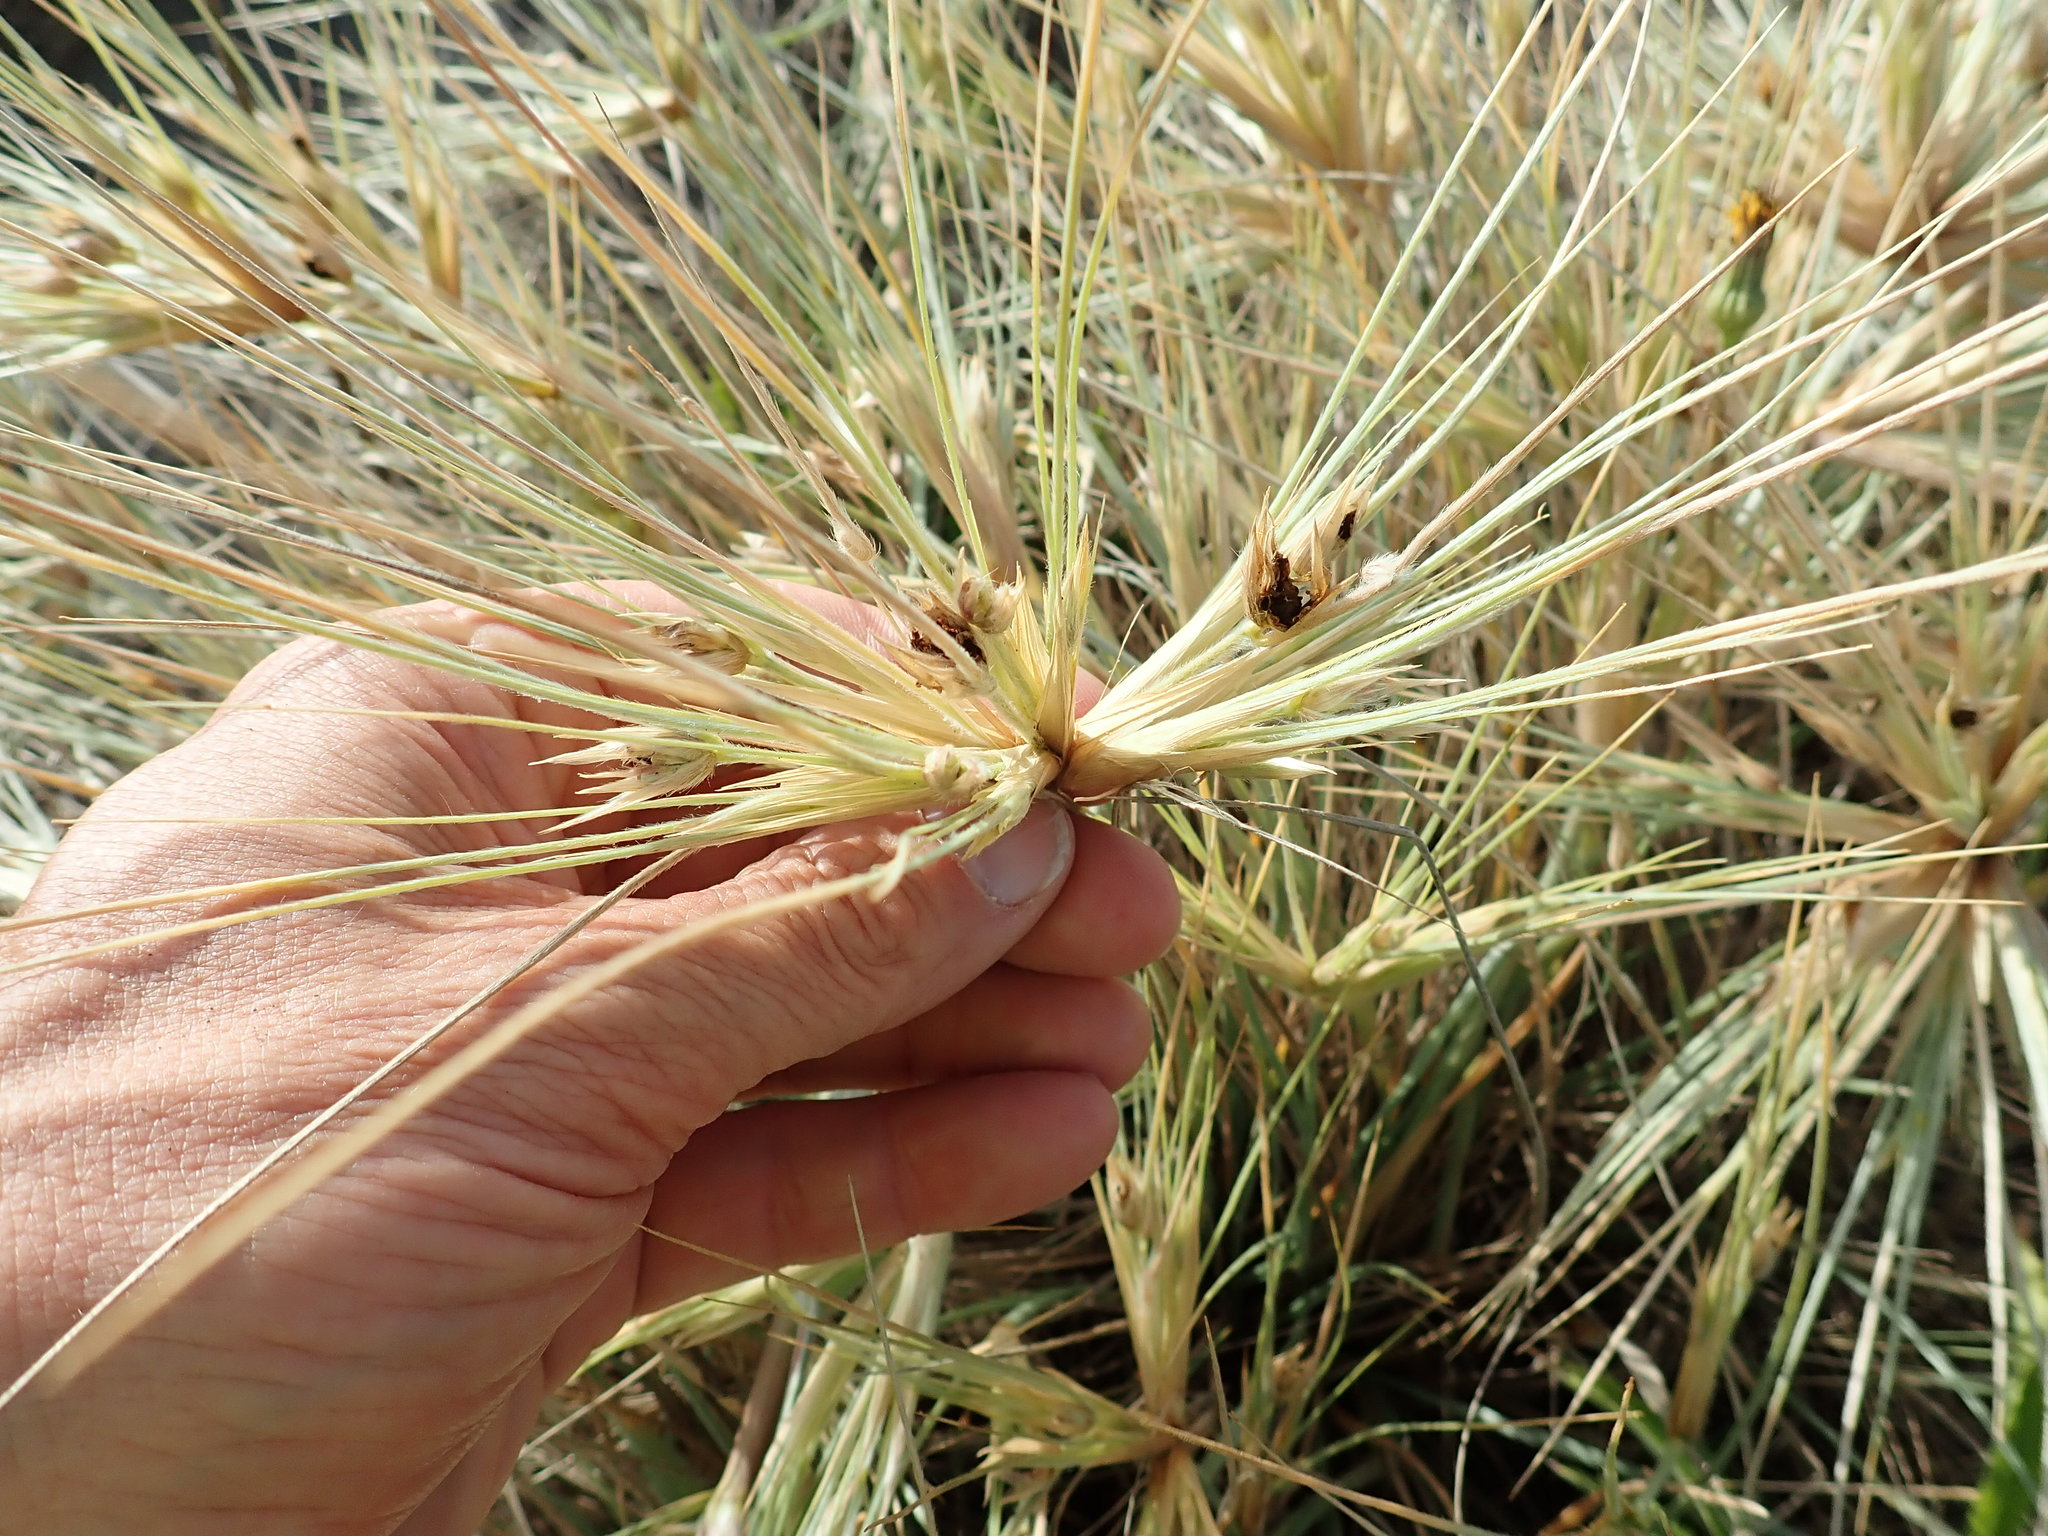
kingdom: Plantae
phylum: Tracheophyta
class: Liliopsida
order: Poales
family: Poaceae
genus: Spinifex
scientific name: Spinifex sericeus
